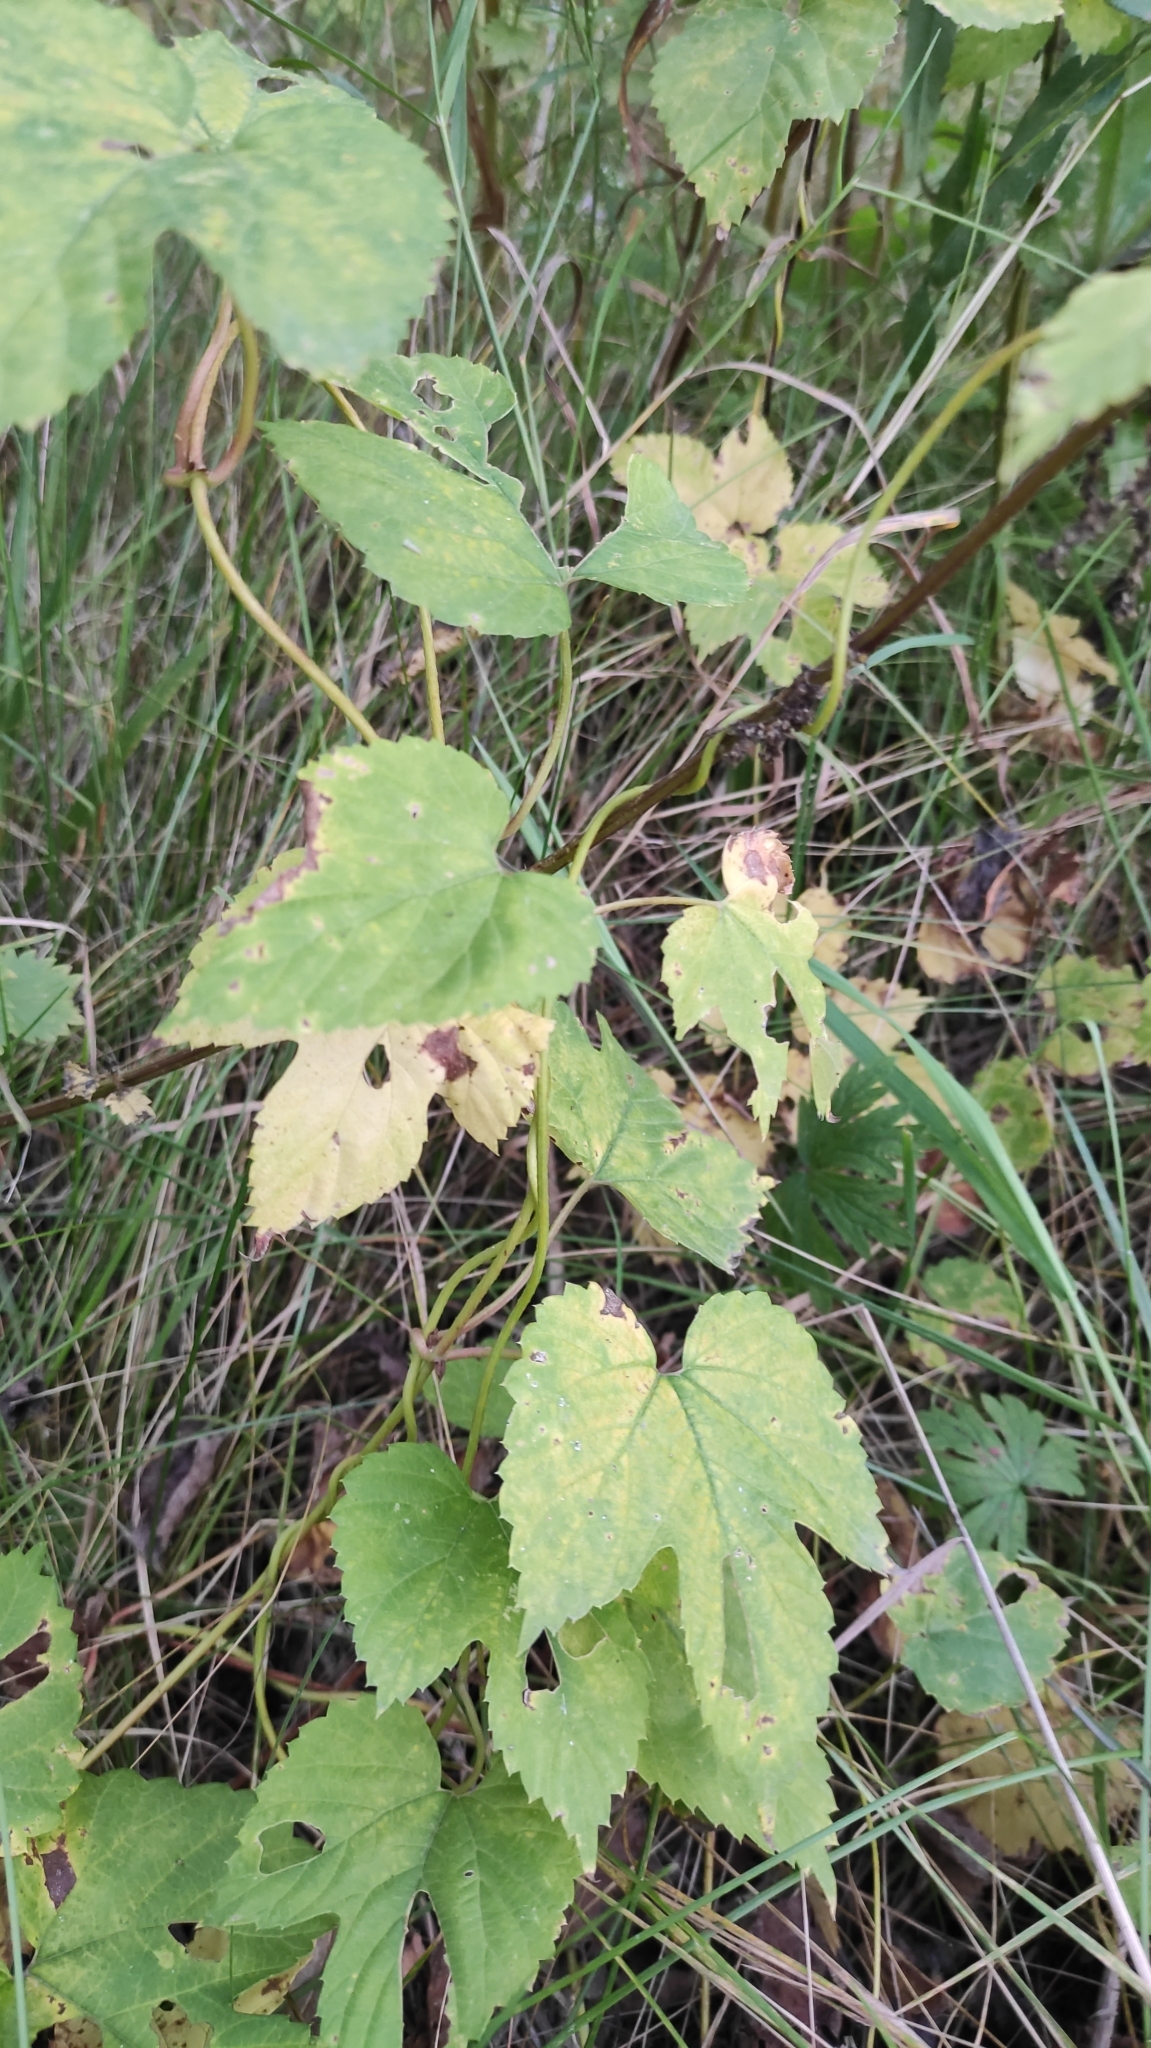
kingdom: Plantae
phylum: Tracheophyta
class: Magnoliopsida
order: Rosales
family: Cannabaceae
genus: Humulus
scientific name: Humulus lupulus
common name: Hop
